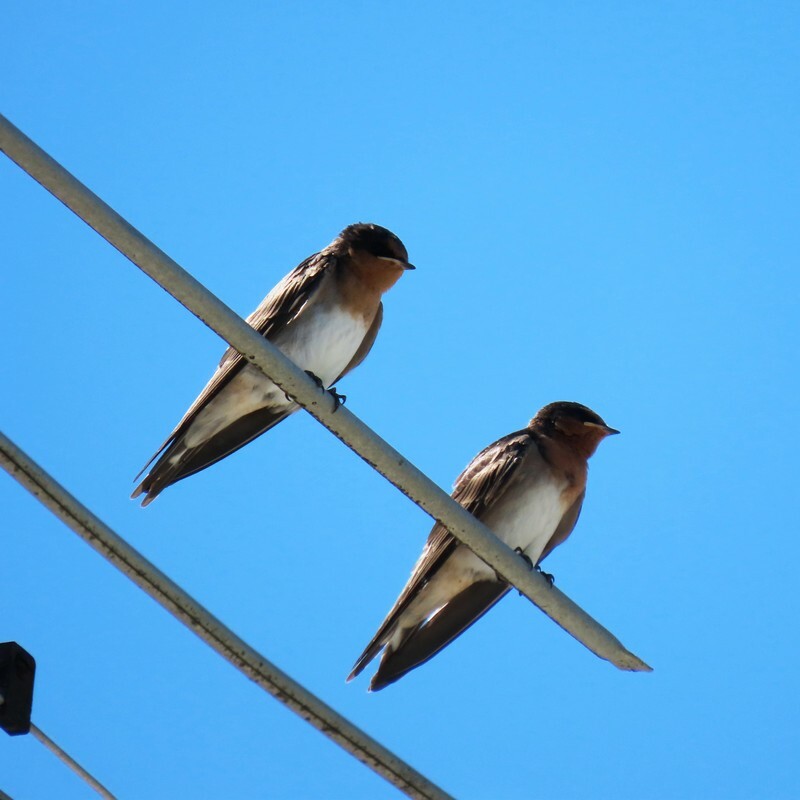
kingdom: Animalia
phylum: Chordata
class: Aves
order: Passeriformes
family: Hirundinidae
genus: Hirundo
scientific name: Hirundo neoxena
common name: Welcome swallow
